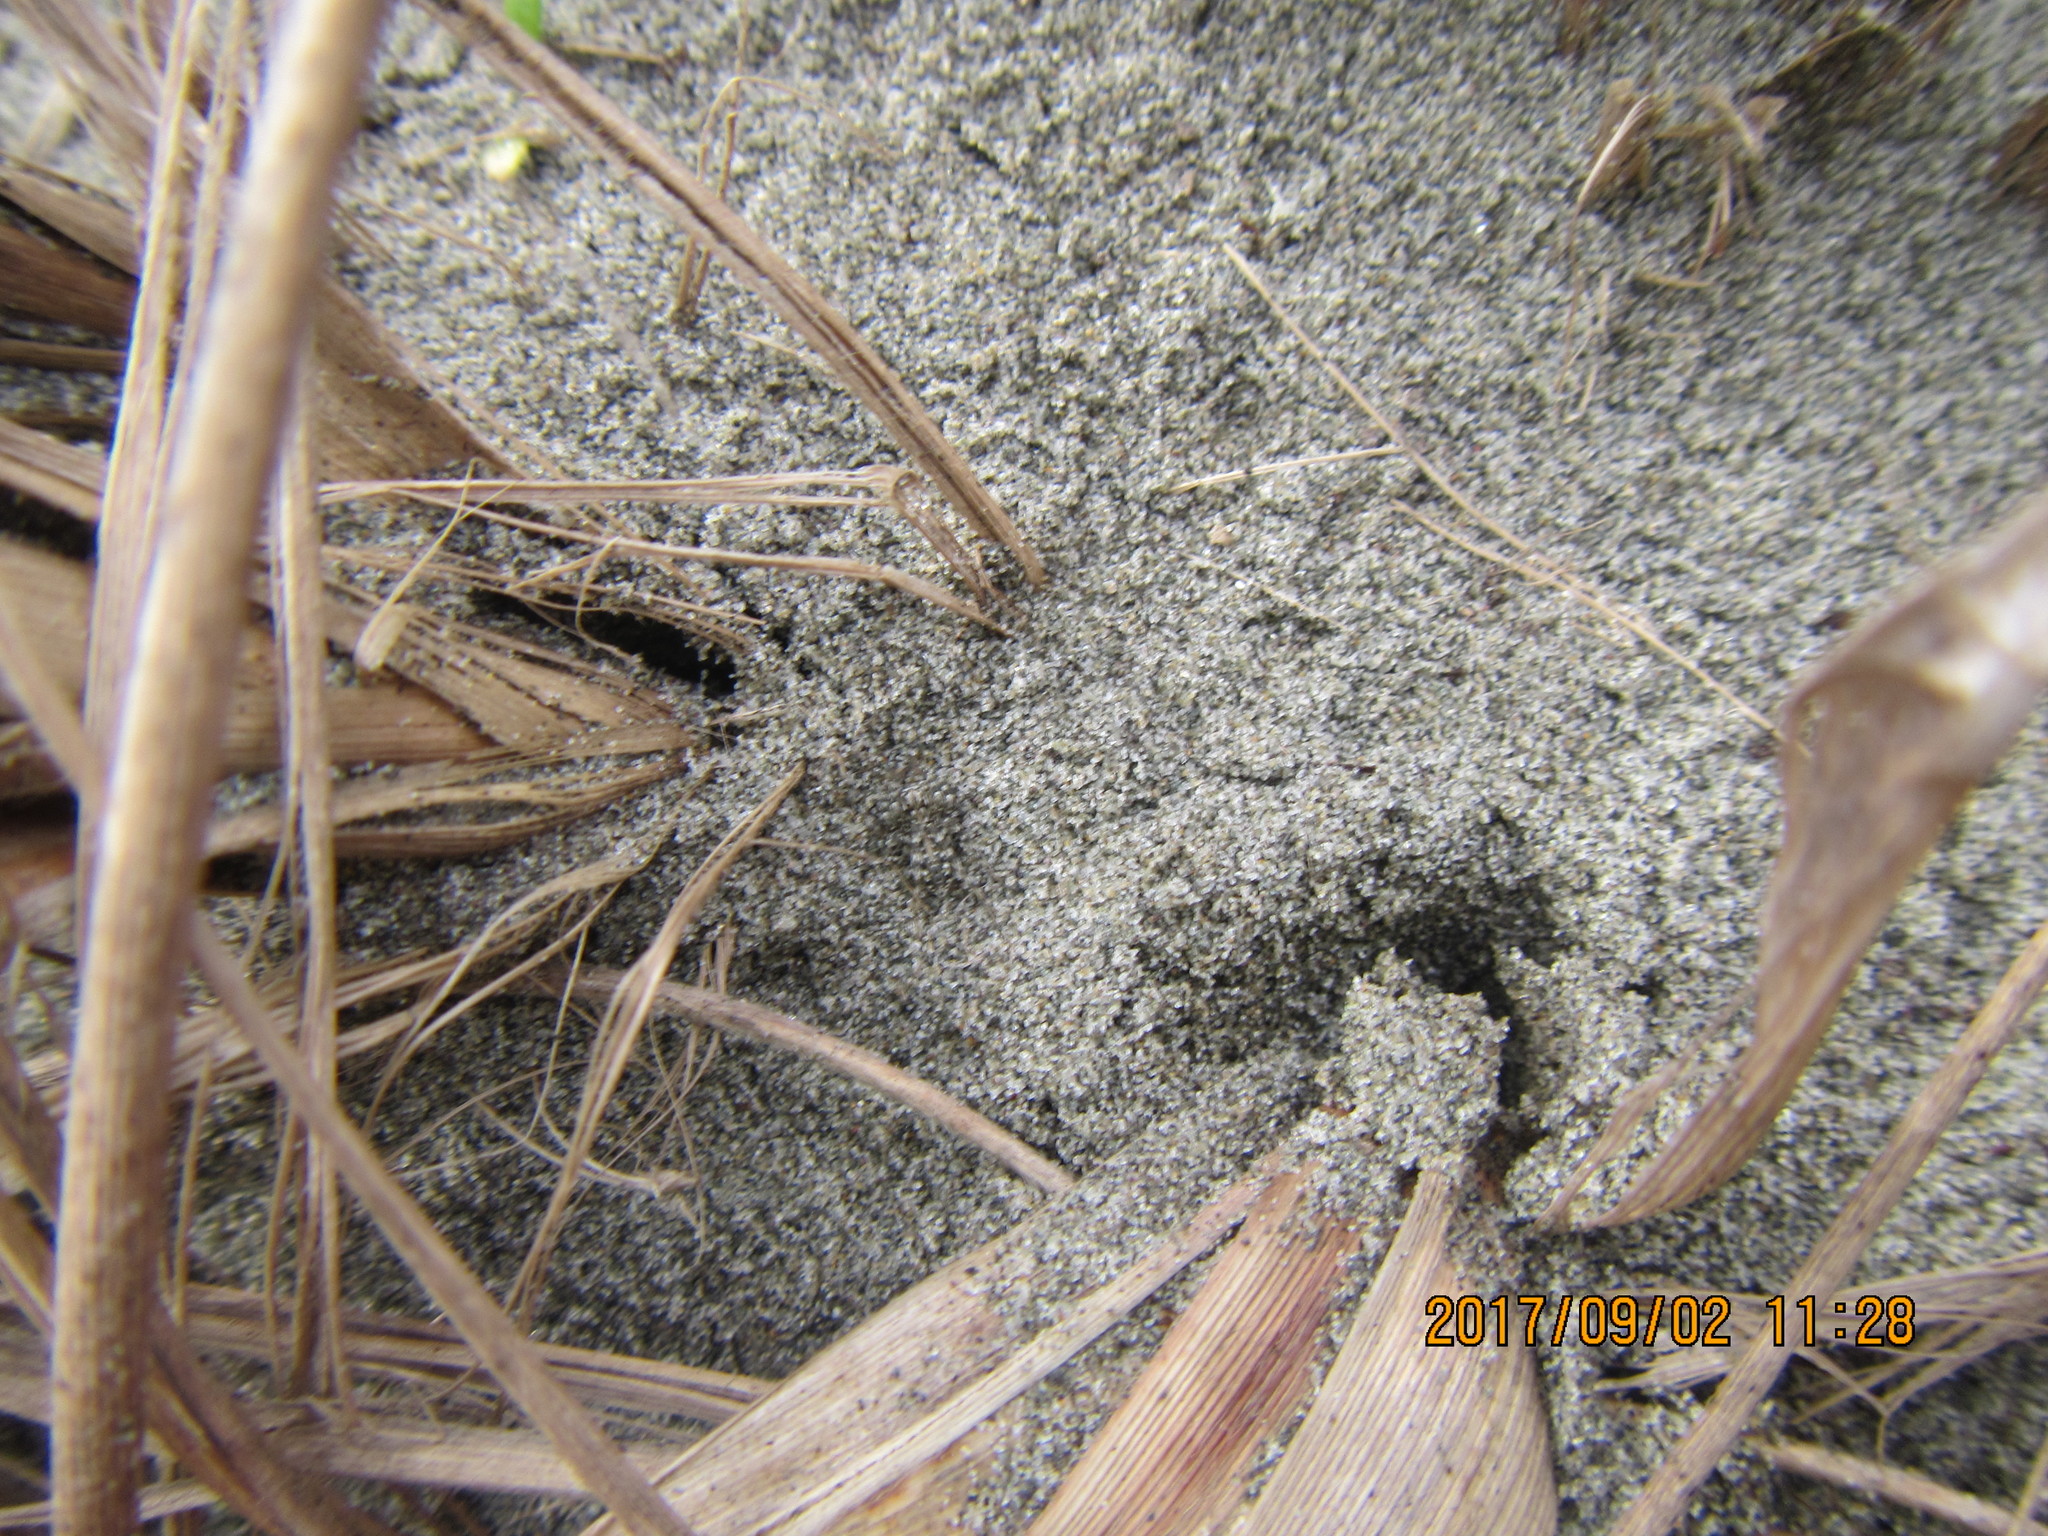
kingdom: Animalia
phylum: Arthropoda
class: Arachnida
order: Araneae
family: Lycosidae
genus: Anoteropsis
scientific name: Anoteropsis litoralis
